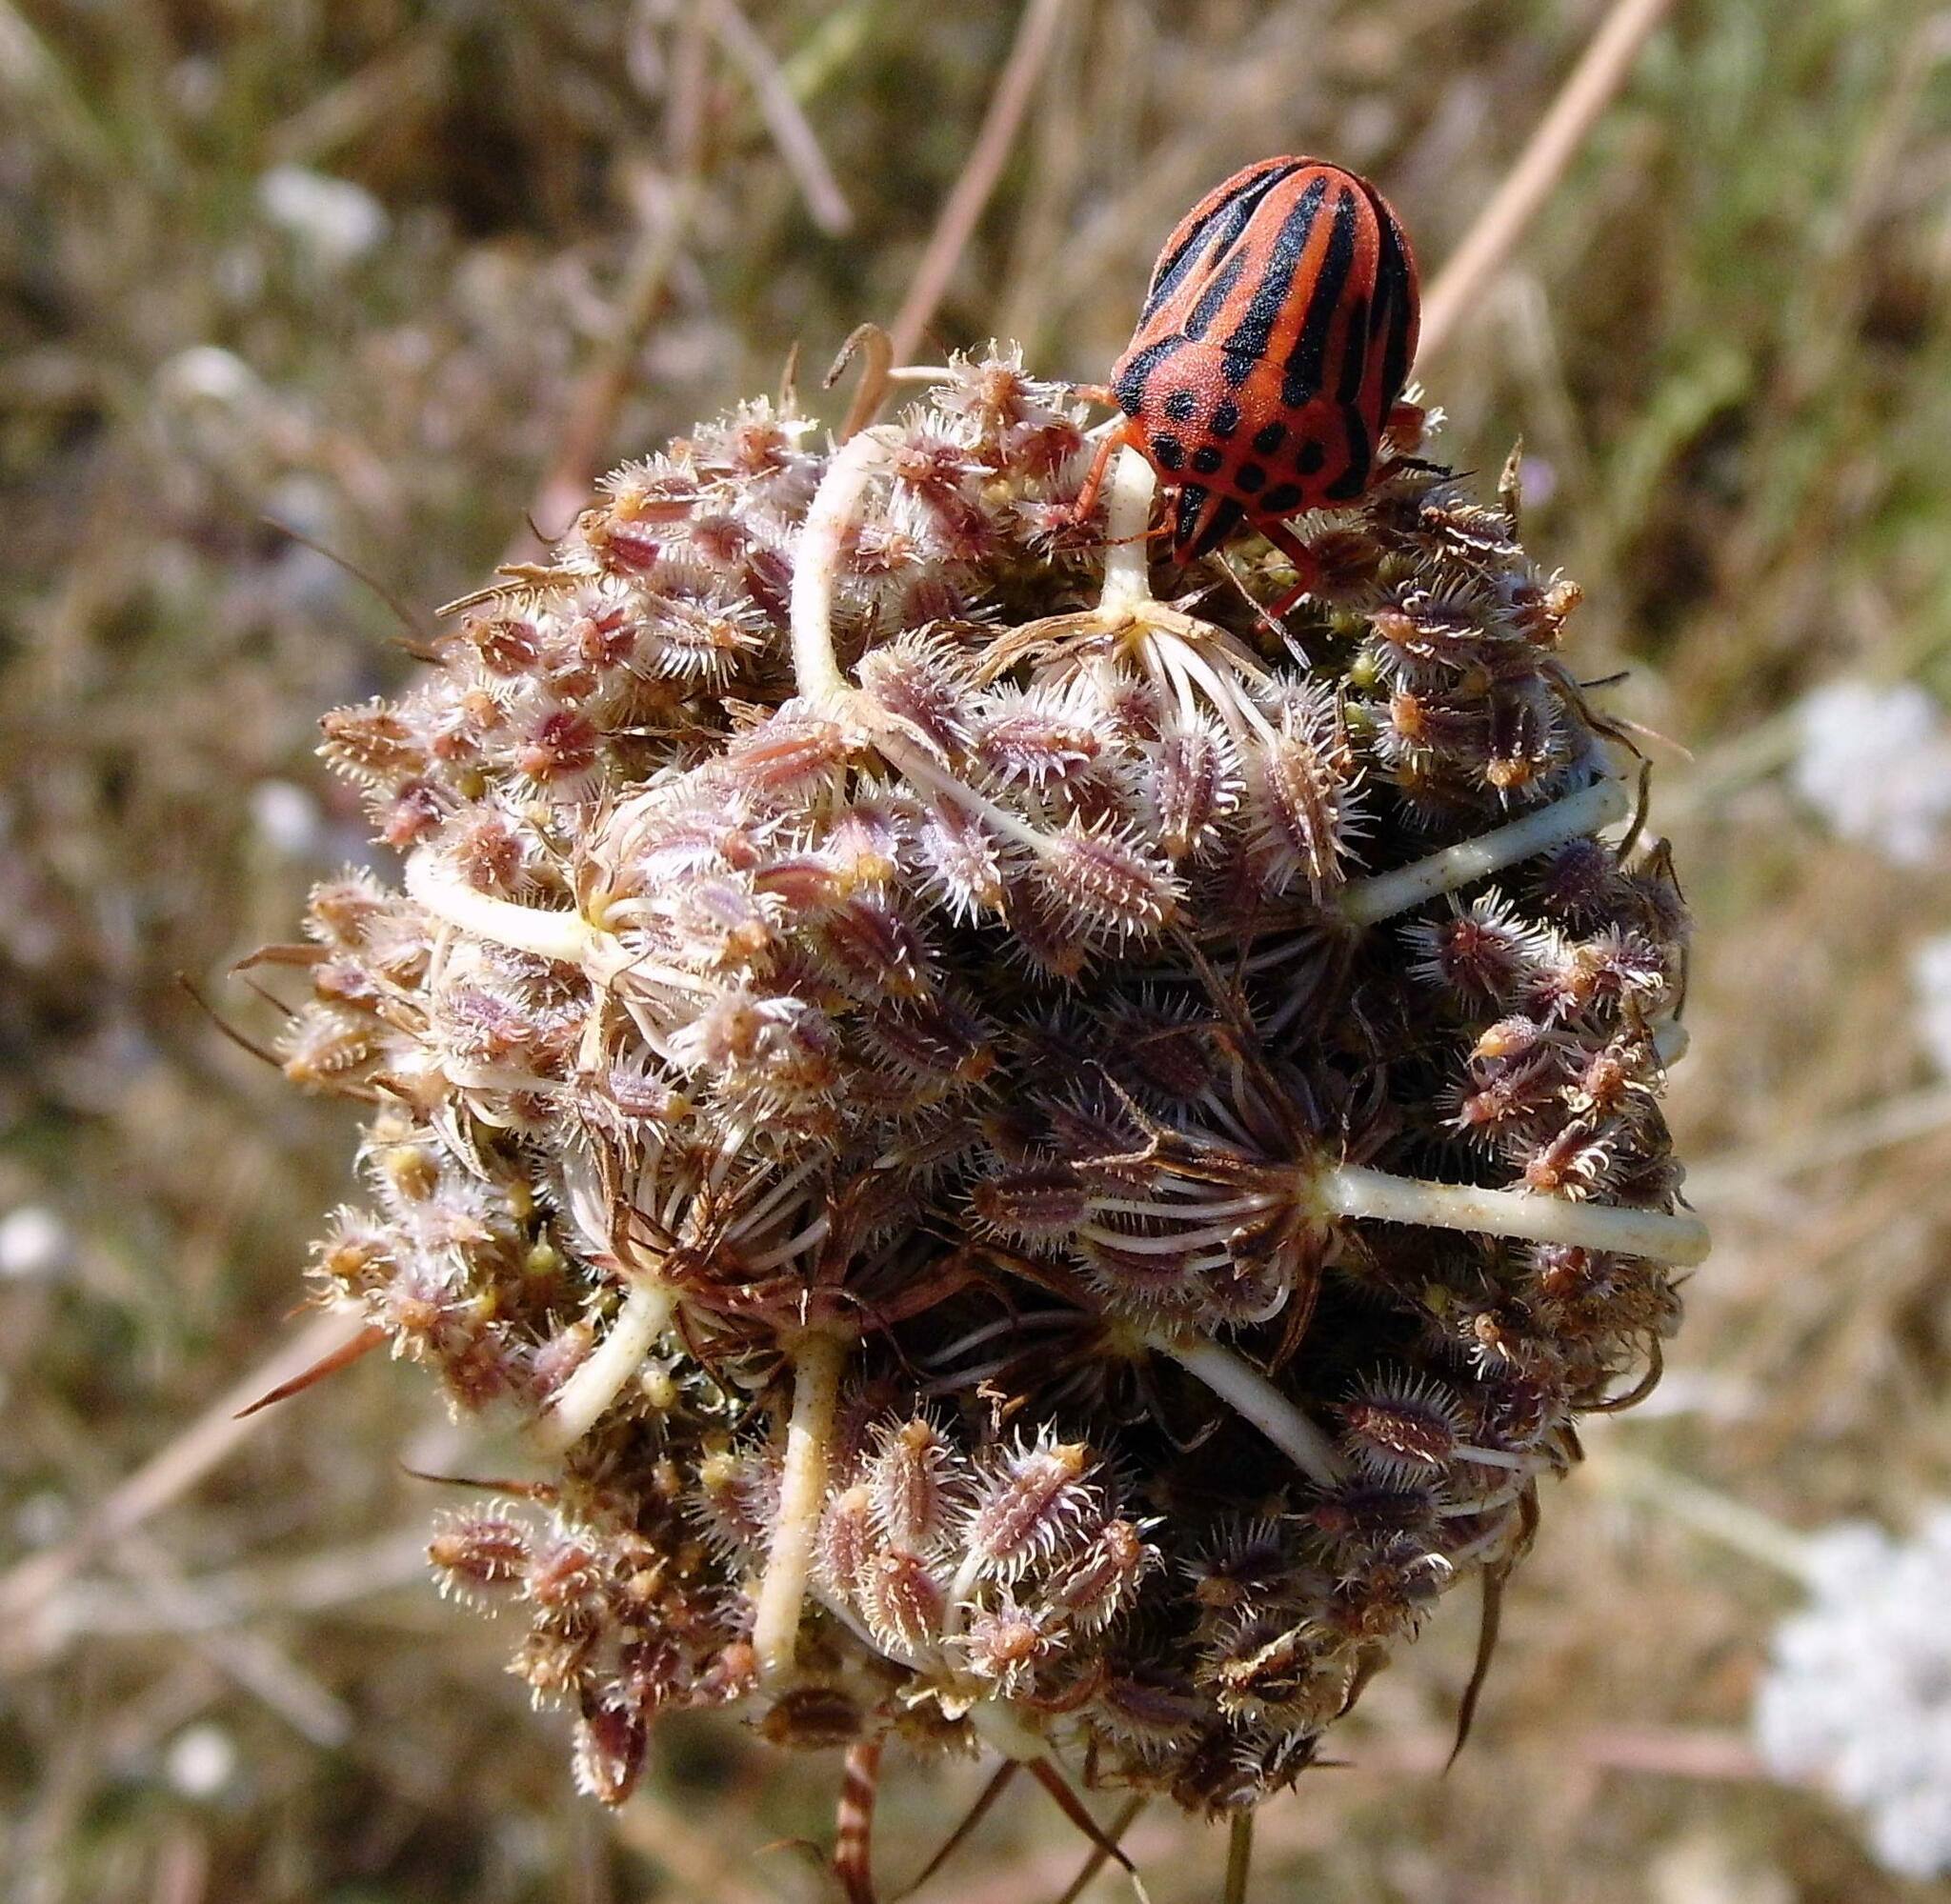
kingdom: Animalia
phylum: Arthropoda
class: Insecta
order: Hemiptera
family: Pentatomidae
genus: Graphosoma
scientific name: Graphosoma semipunctatum
